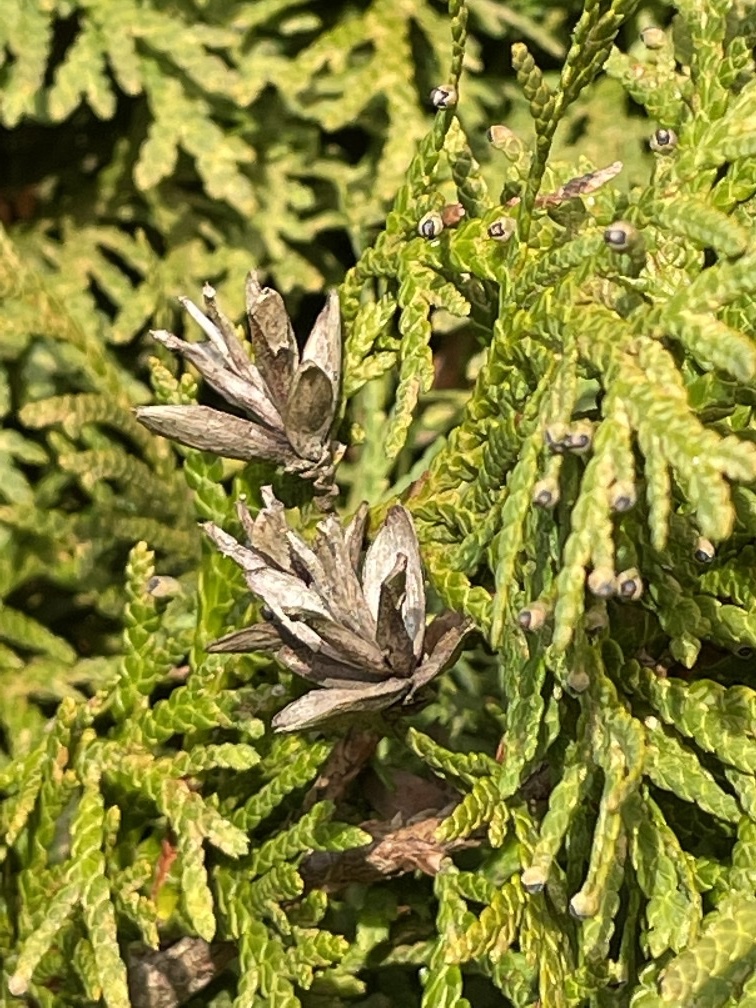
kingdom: Plantae
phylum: Tracheophyta
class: Pinopsida
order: Pinales
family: Cupressaceae
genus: Thuja
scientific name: Thuja plicata
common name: Western red-cedar
